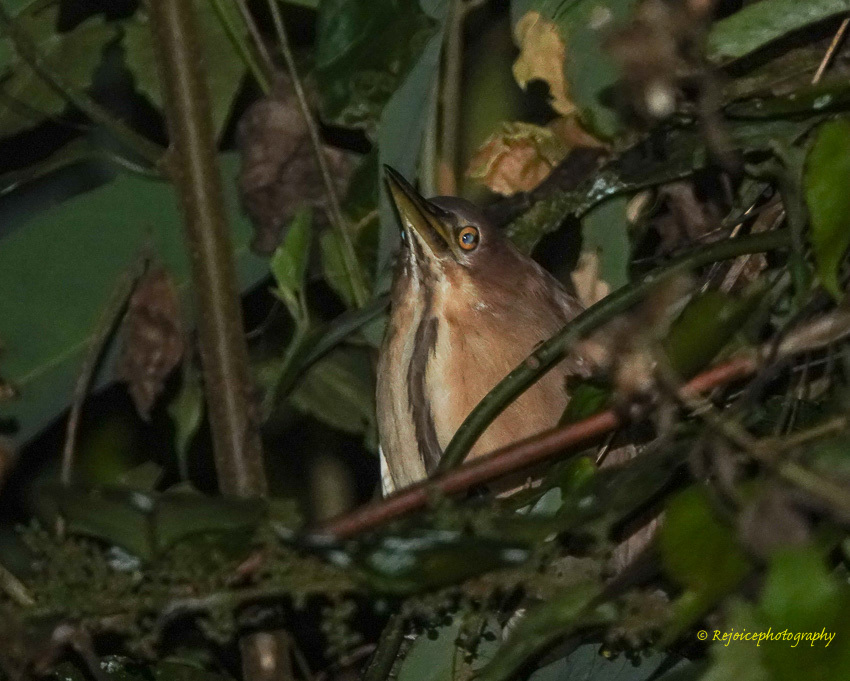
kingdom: Animalia
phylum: Chordata
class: Aves
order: Pelecaniformes
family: Ardeidae
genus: Ixobrychus
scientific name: Ixobrychus cinnamomeus
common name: Cinnamon bittern
